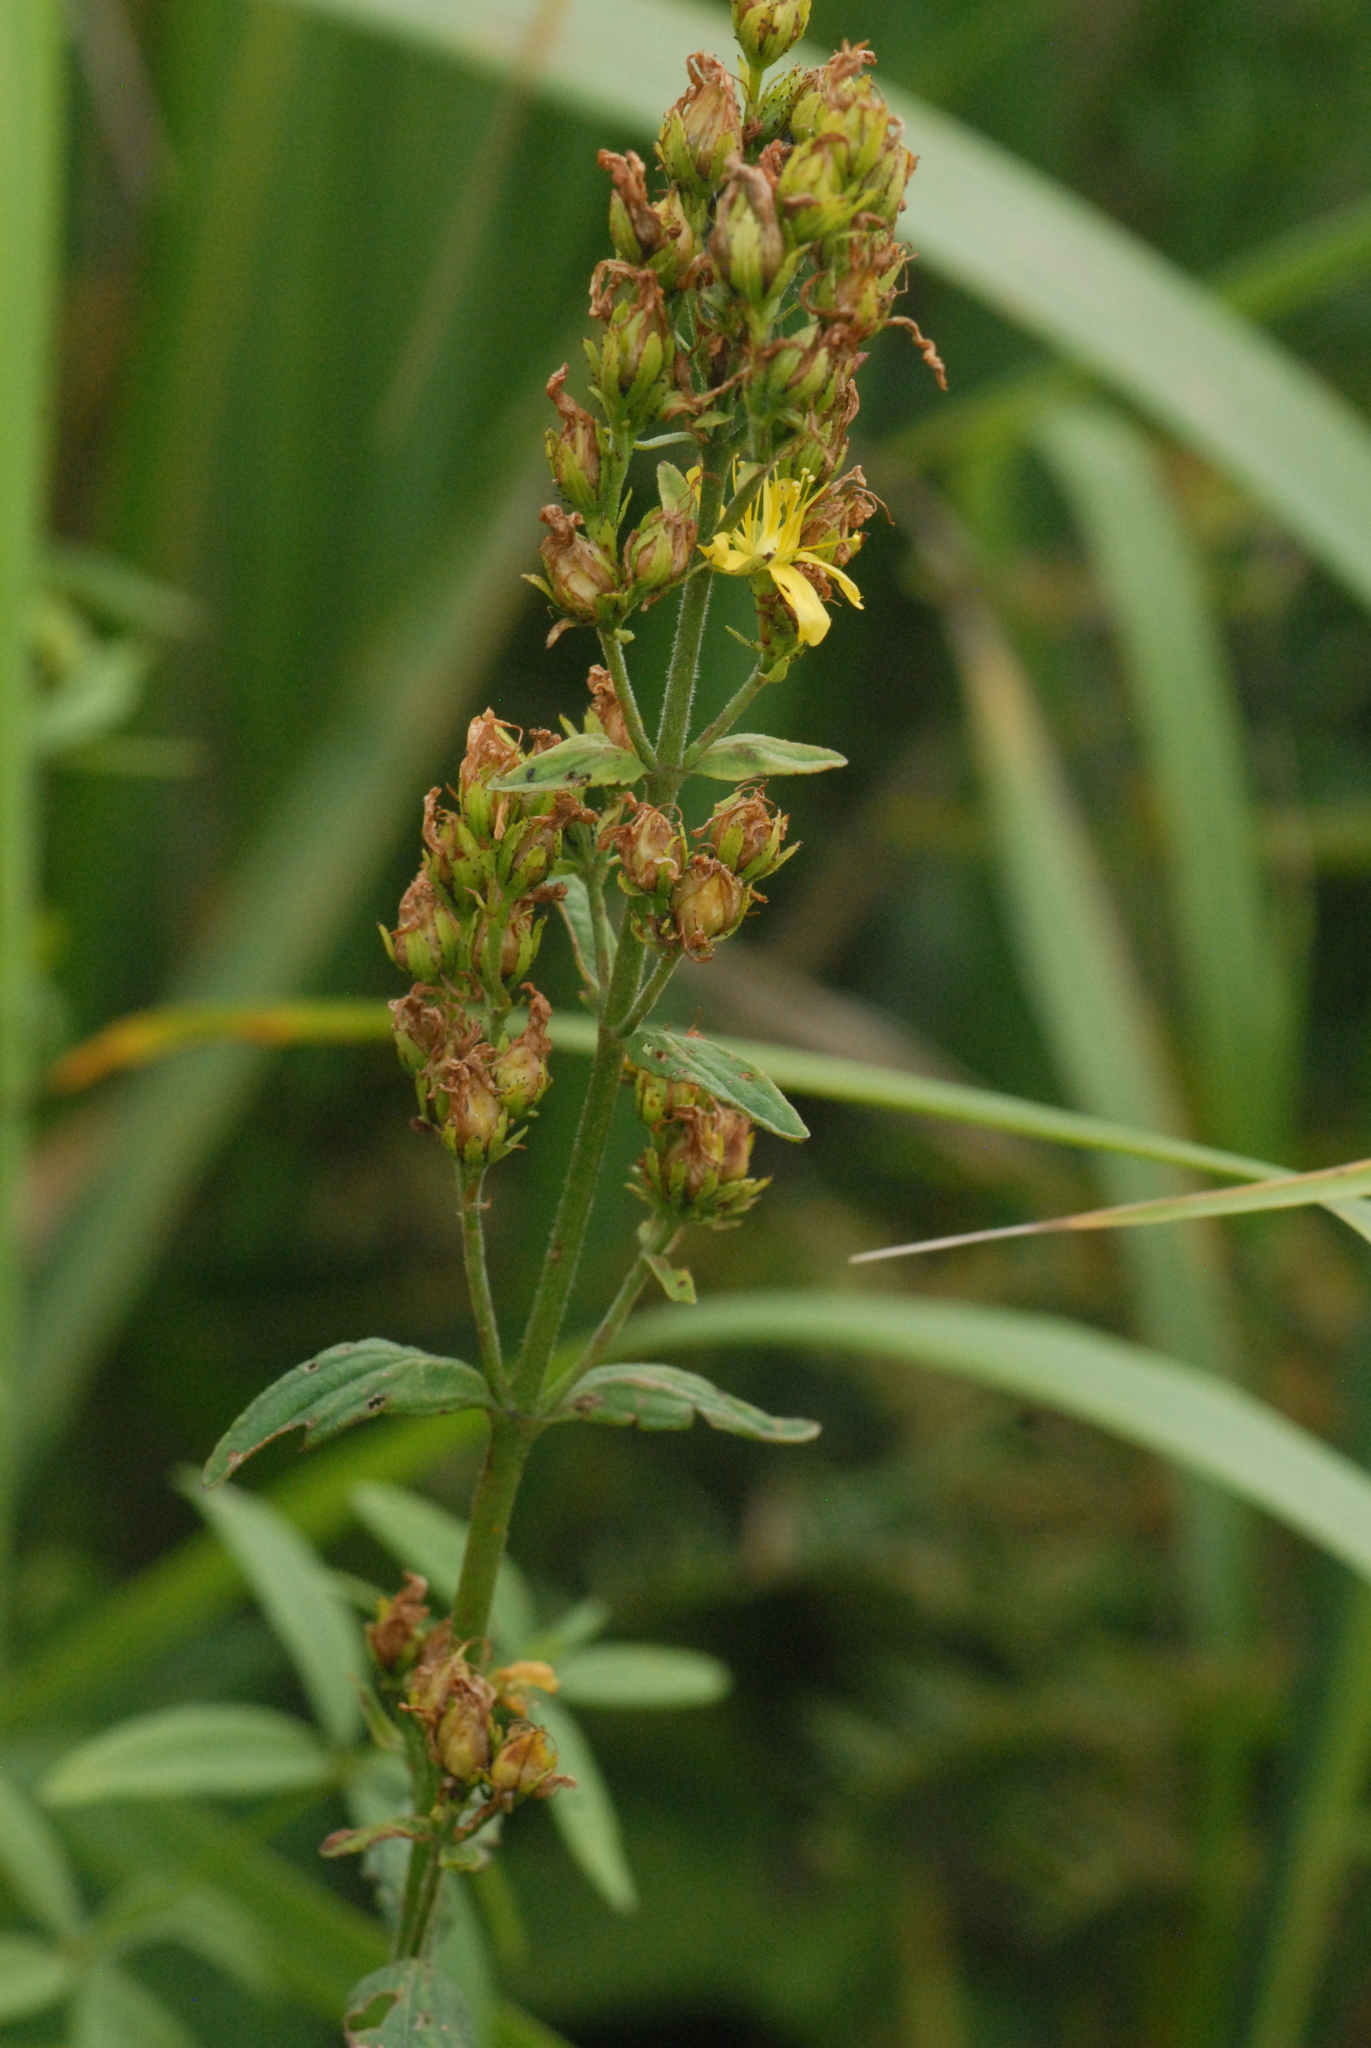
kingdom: Plantae
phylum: Tracheophyta
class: Magnoliopsida
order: Malpighiales
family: Hypericaceae
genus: Hypericum
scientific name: Hypericum hirsutum
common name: Hairy st. john's-wort
